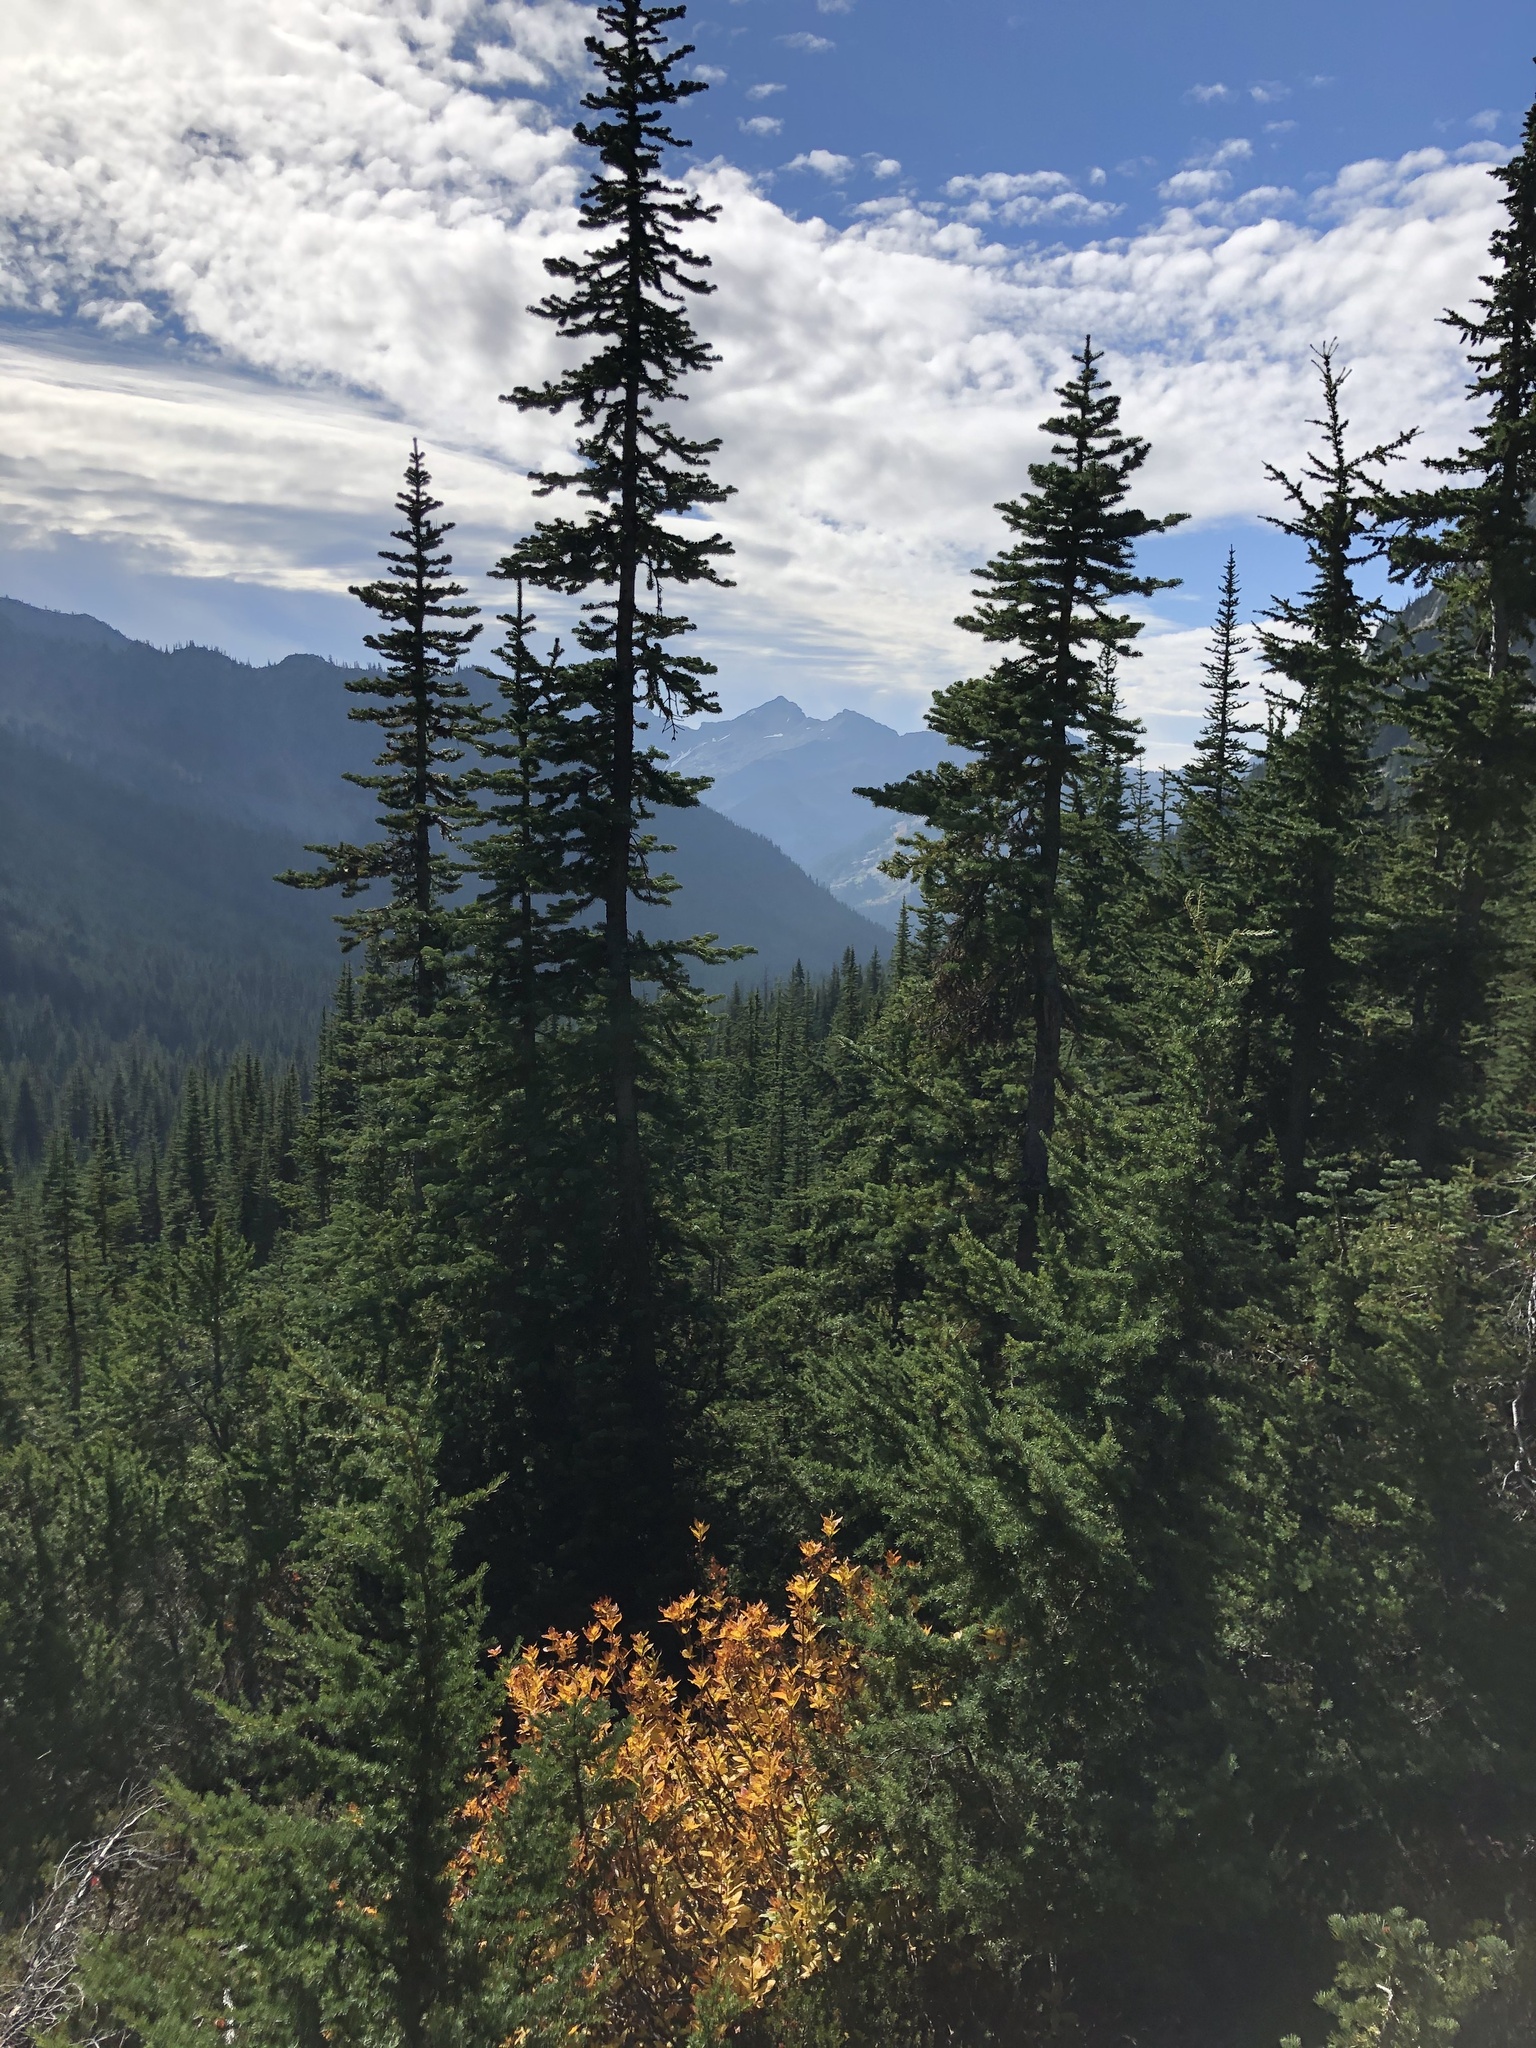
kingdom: Plantae
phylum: Tracheophyta
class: Pinopsida
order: Pinales
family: Pinaceae
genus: Abies
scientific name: Abies lasiocarpa
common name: Subalpine fir
